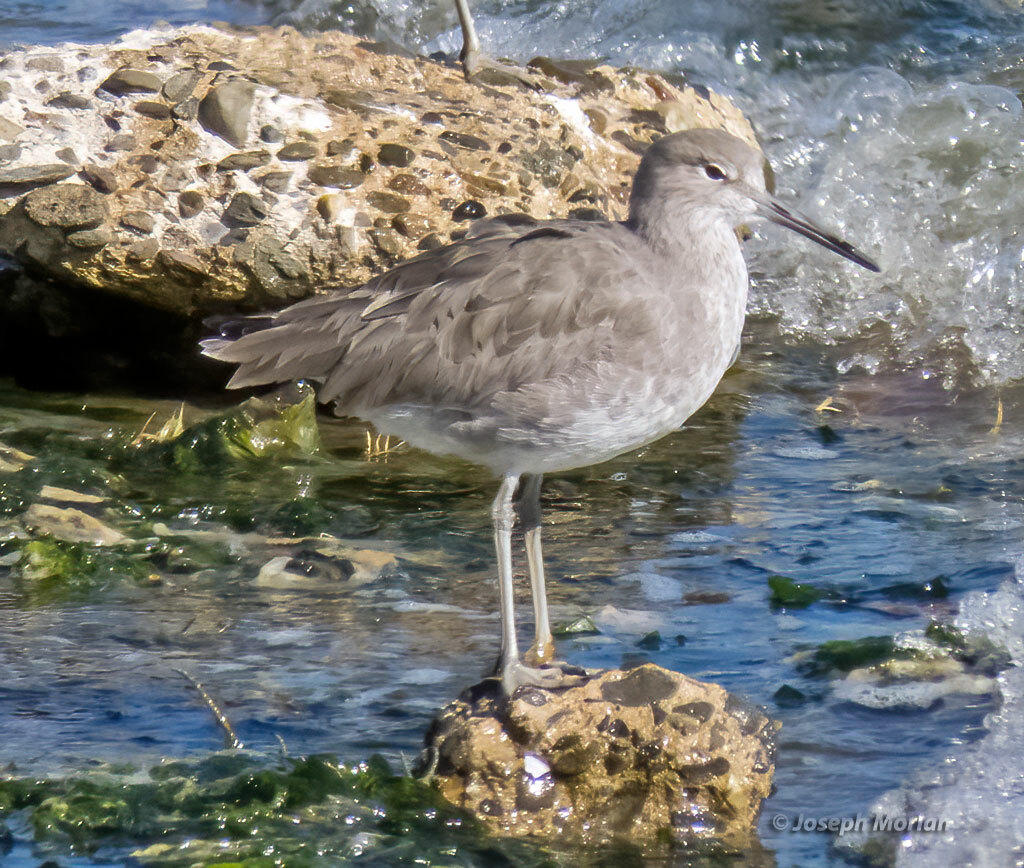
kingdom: Animalia
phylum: Chordata
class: Aves
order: Charadriiformes
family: Scolopacidae
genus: Tringa
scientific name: Tringa semipalmata
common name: Willet
